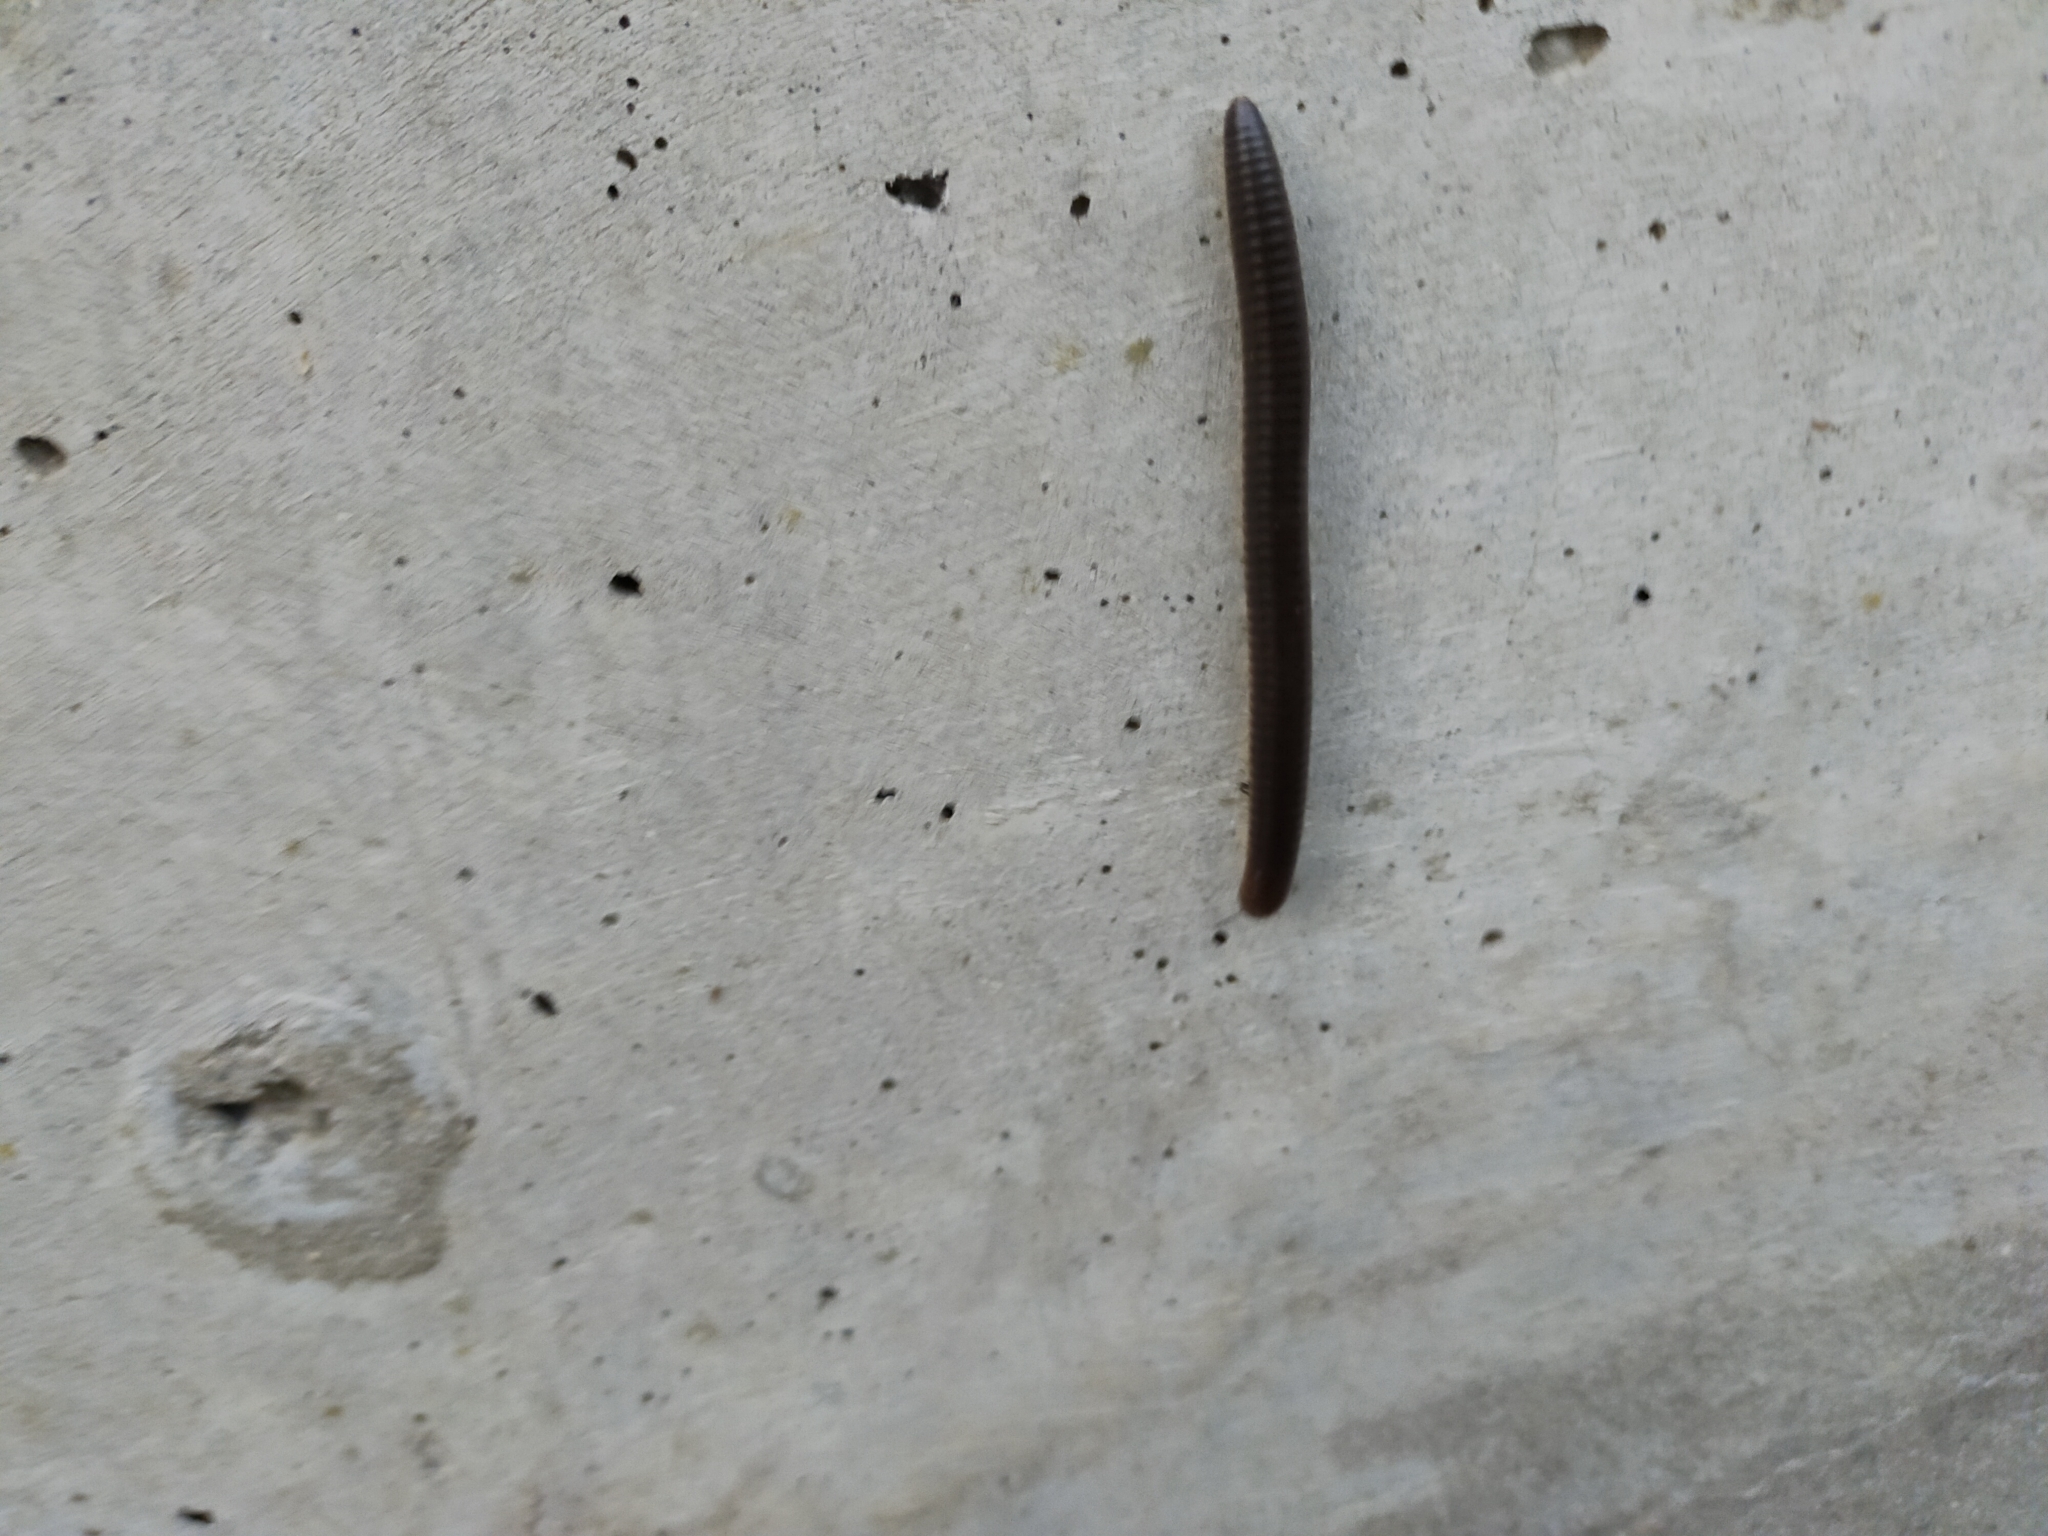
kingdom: Animalia
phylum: Arthropoda
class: Diplopoda
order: Julida
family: Julidae
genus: Pachyiulus
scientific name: Pachyiulus flavipes
